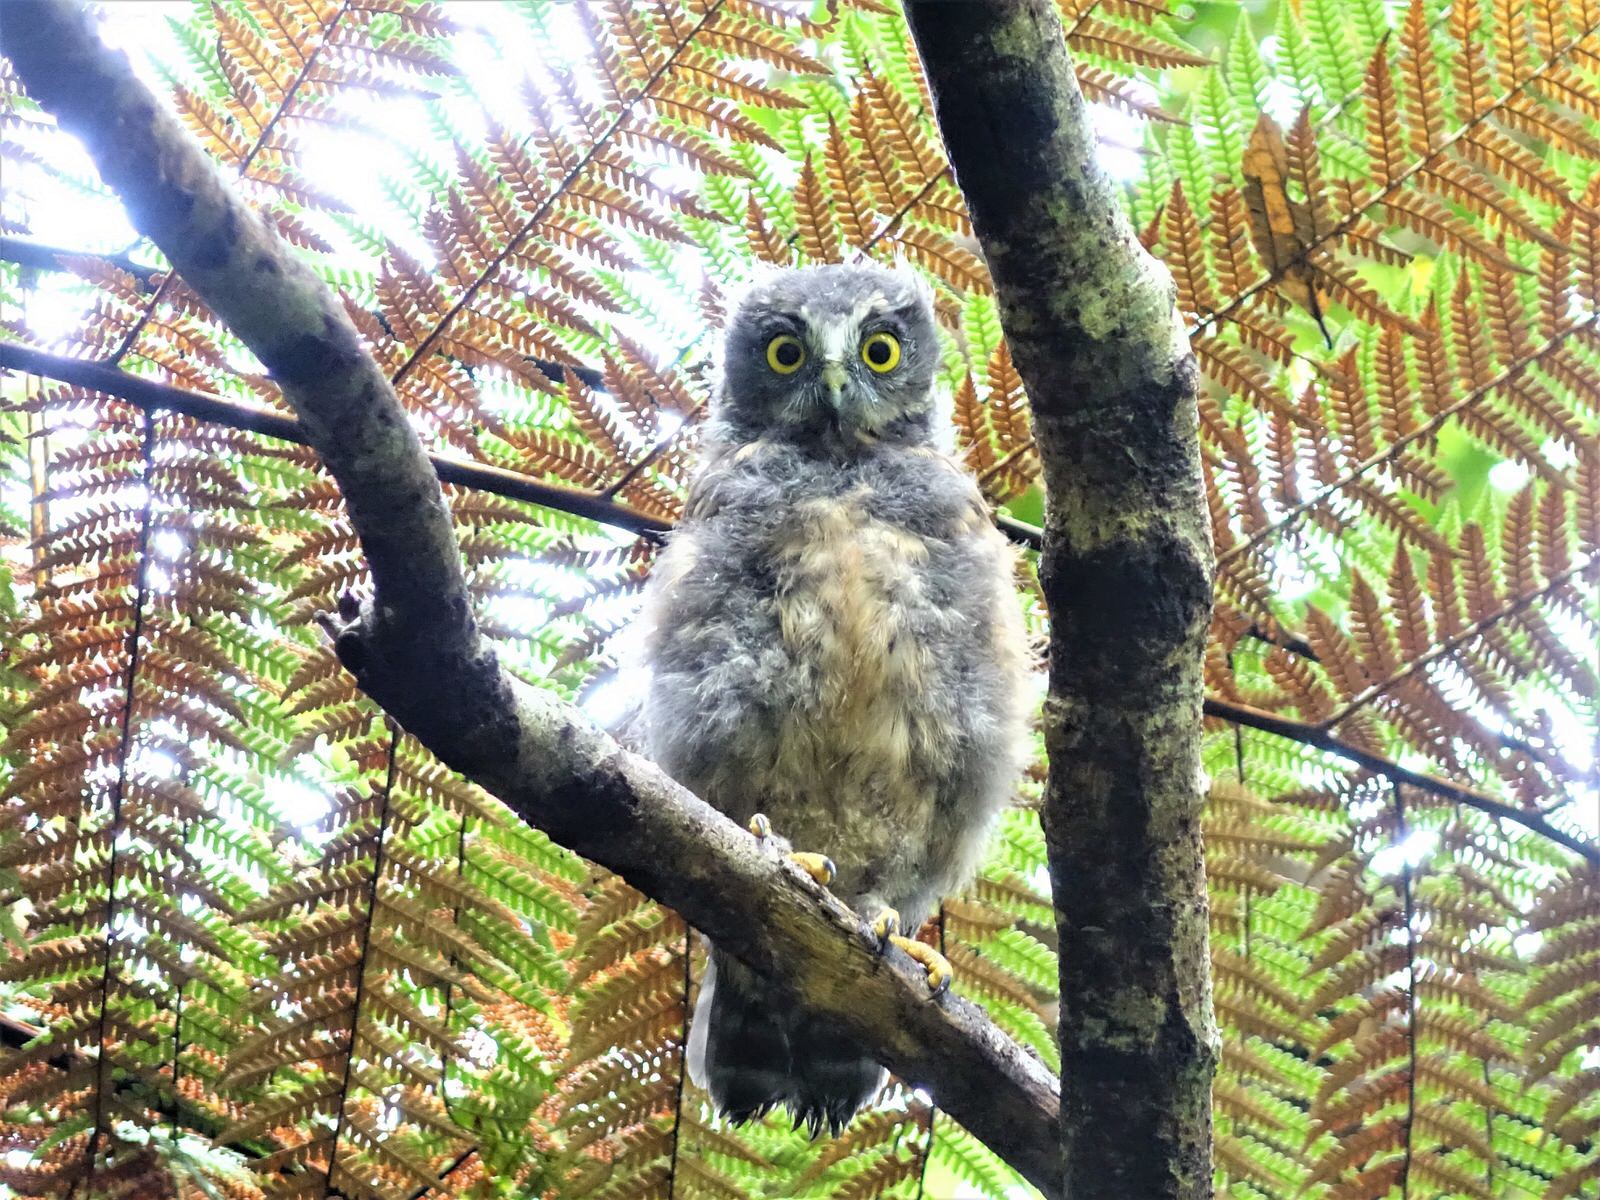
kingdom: Animalia
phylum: Chordata
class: Aves
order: Strigiformes
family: Strigidae
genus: Ninox
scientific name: Ninox novaeseelandiae
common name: Morepork
